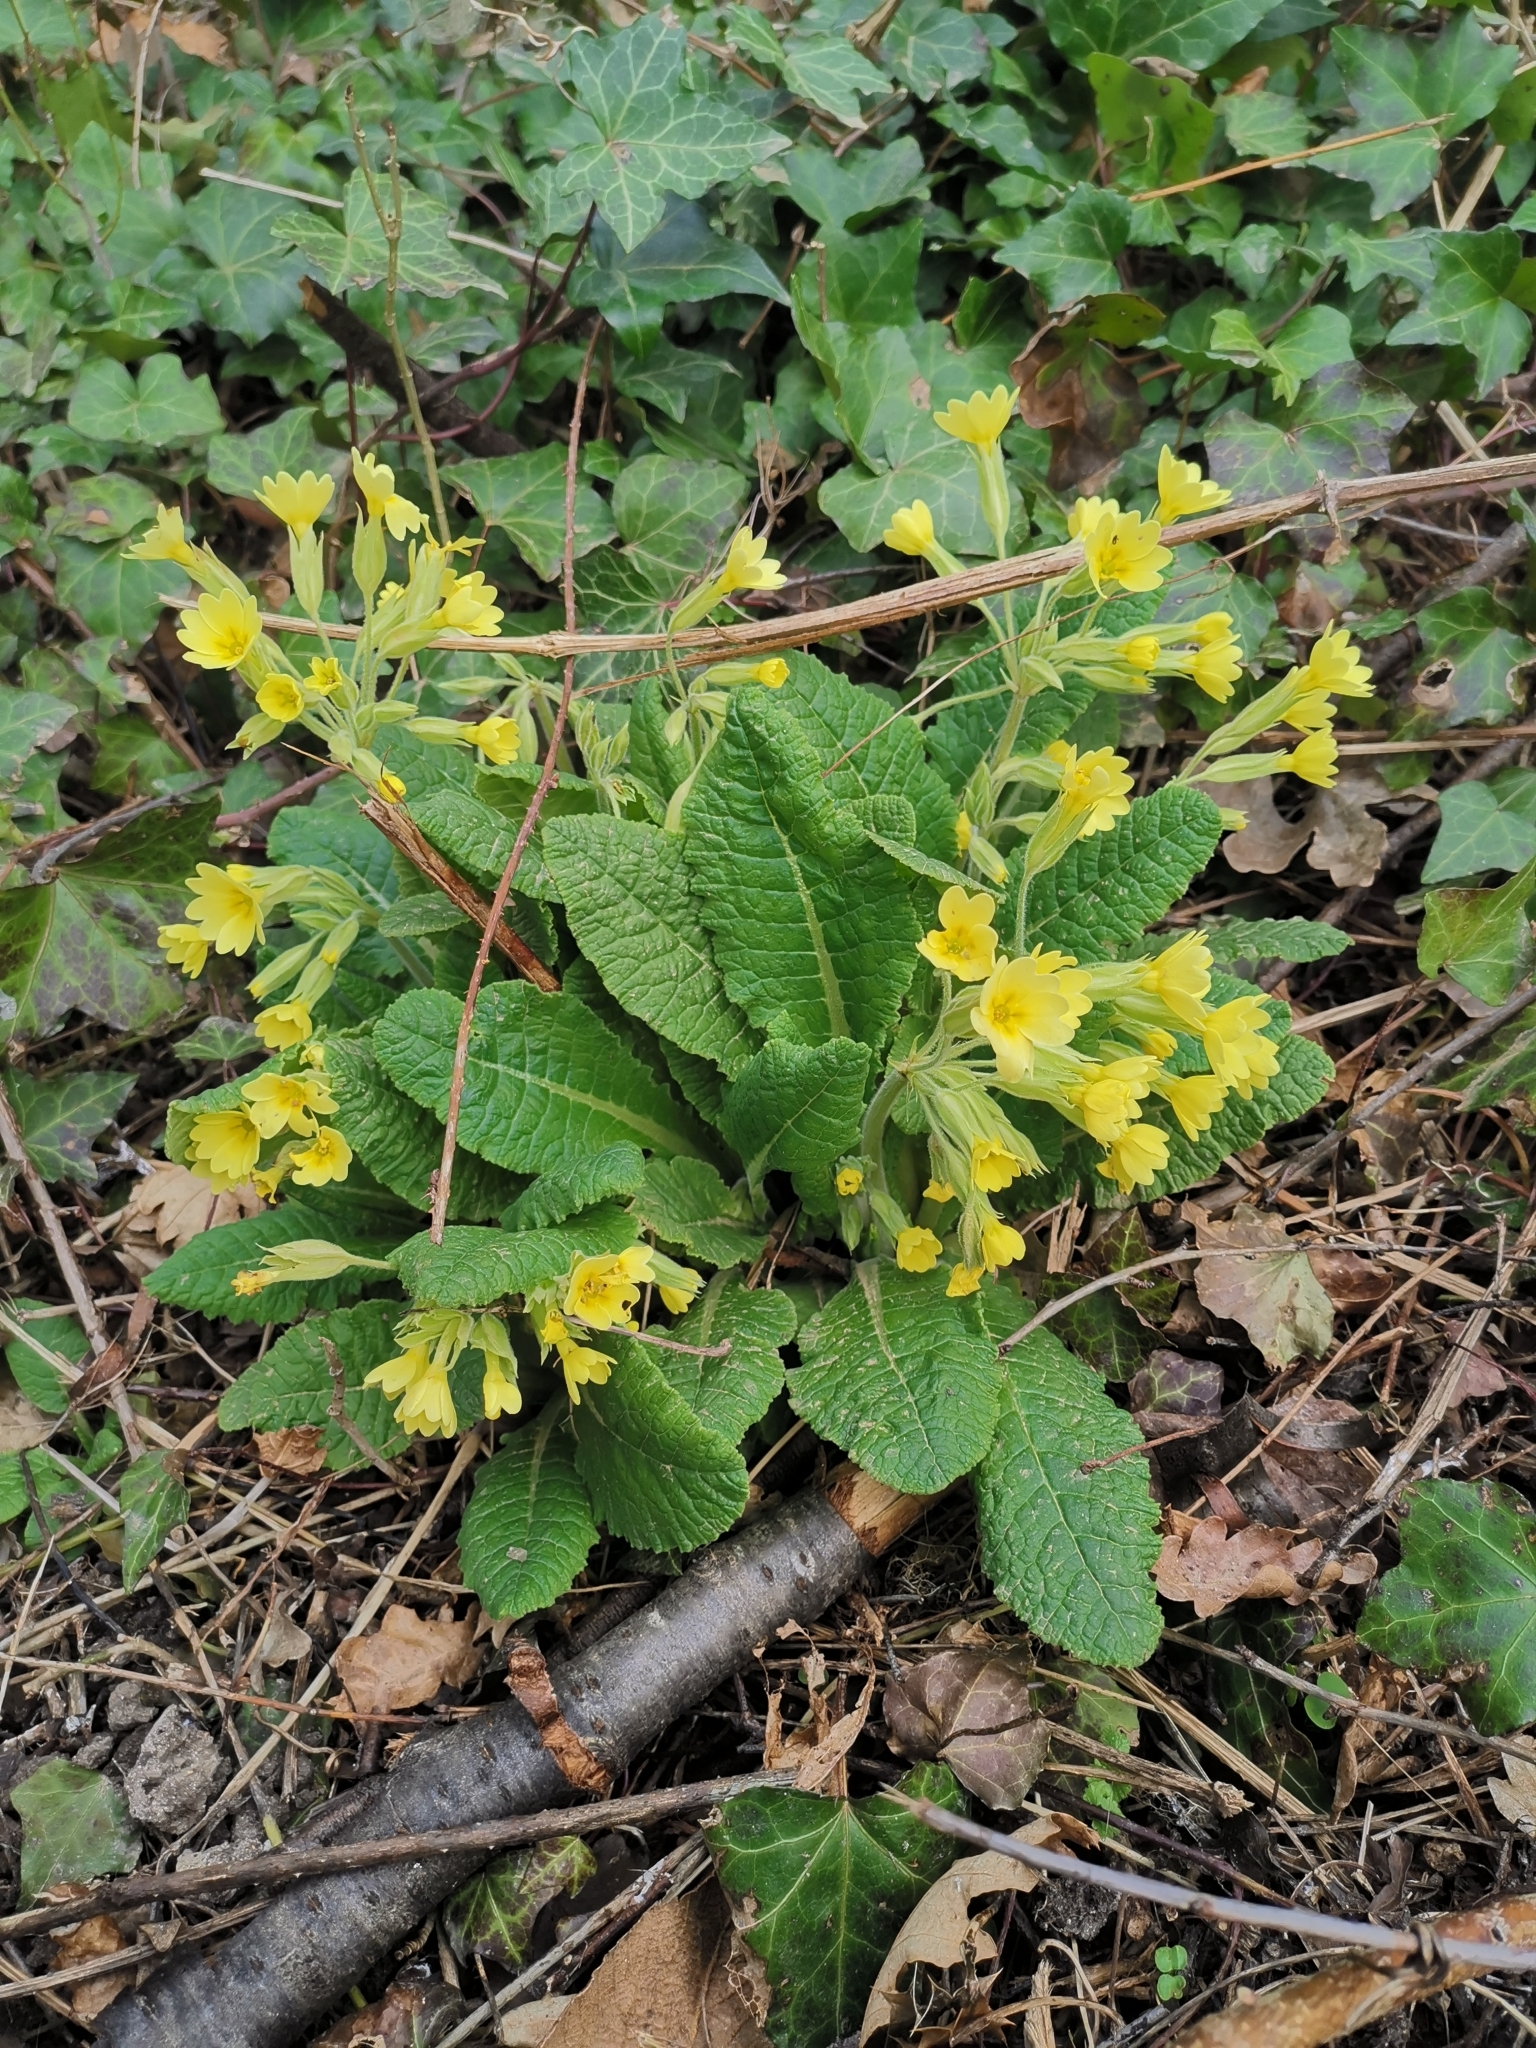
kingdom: Plantae
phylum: Tracheophyta
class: Magnoliopsida
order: Ericales
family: Primulaceae
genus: Primula
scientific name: Primula polyantha
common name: False oxlip
